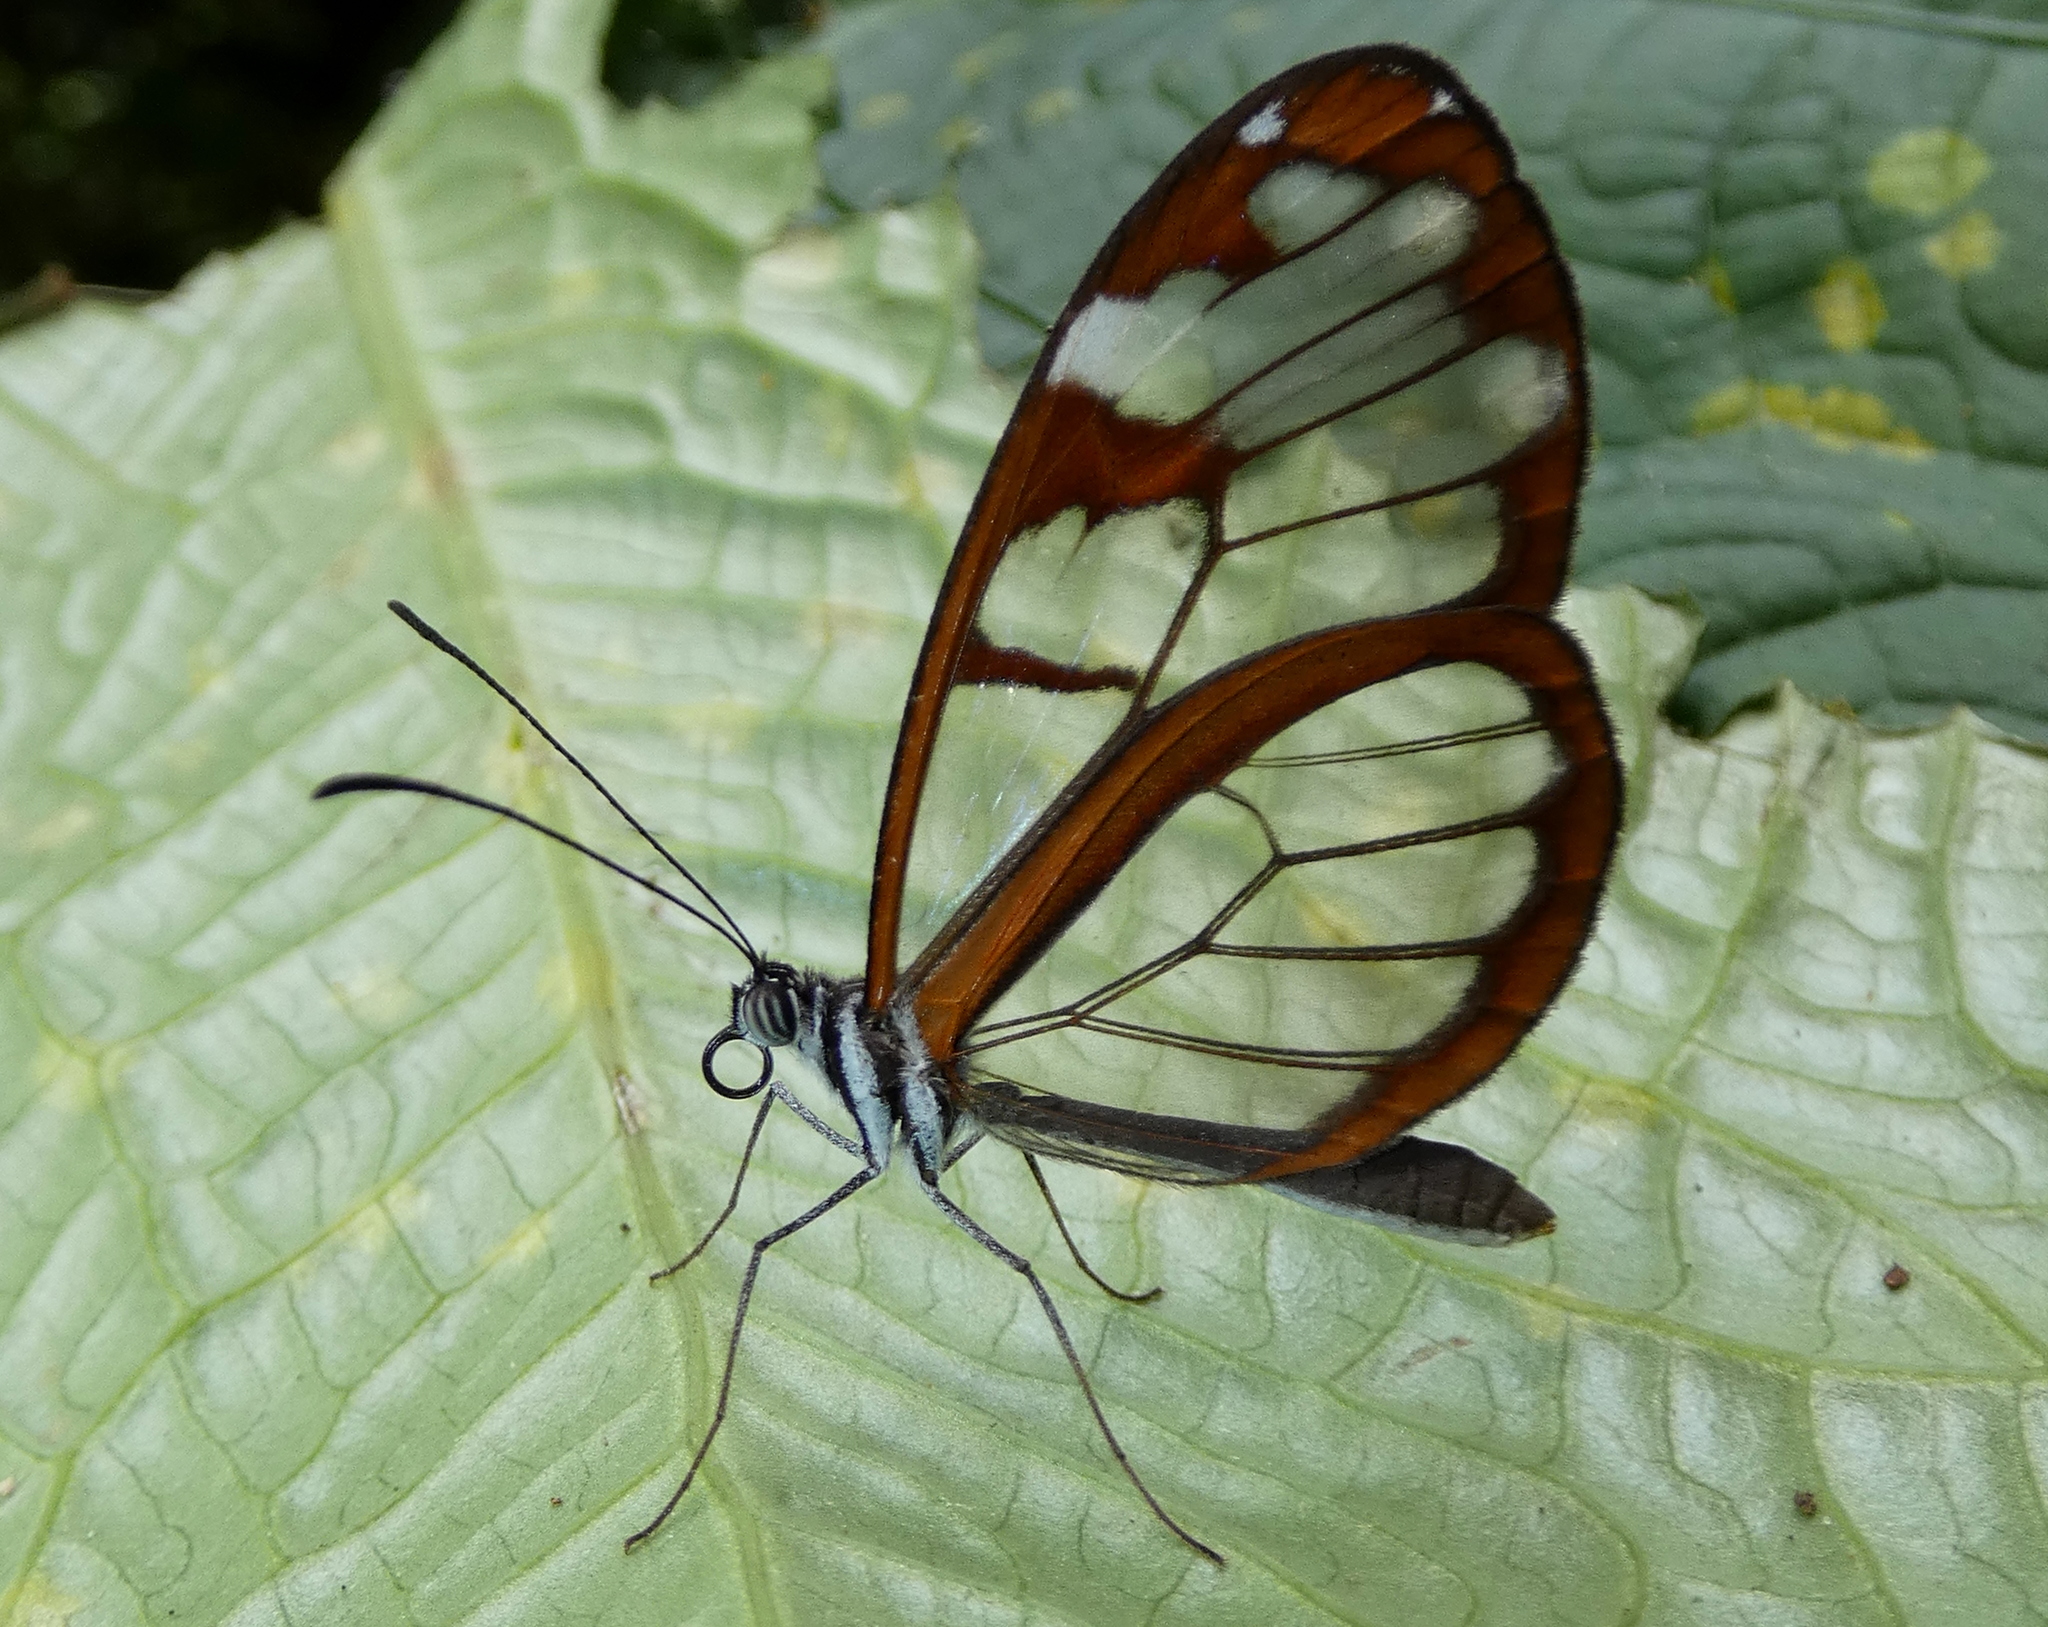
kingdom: Animalia
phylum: Arthropoda
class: Insecta
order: Lepidoptera
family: Nymphalidae
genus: Oleria
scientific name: Oleria vicina
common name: Vicina clearwing
